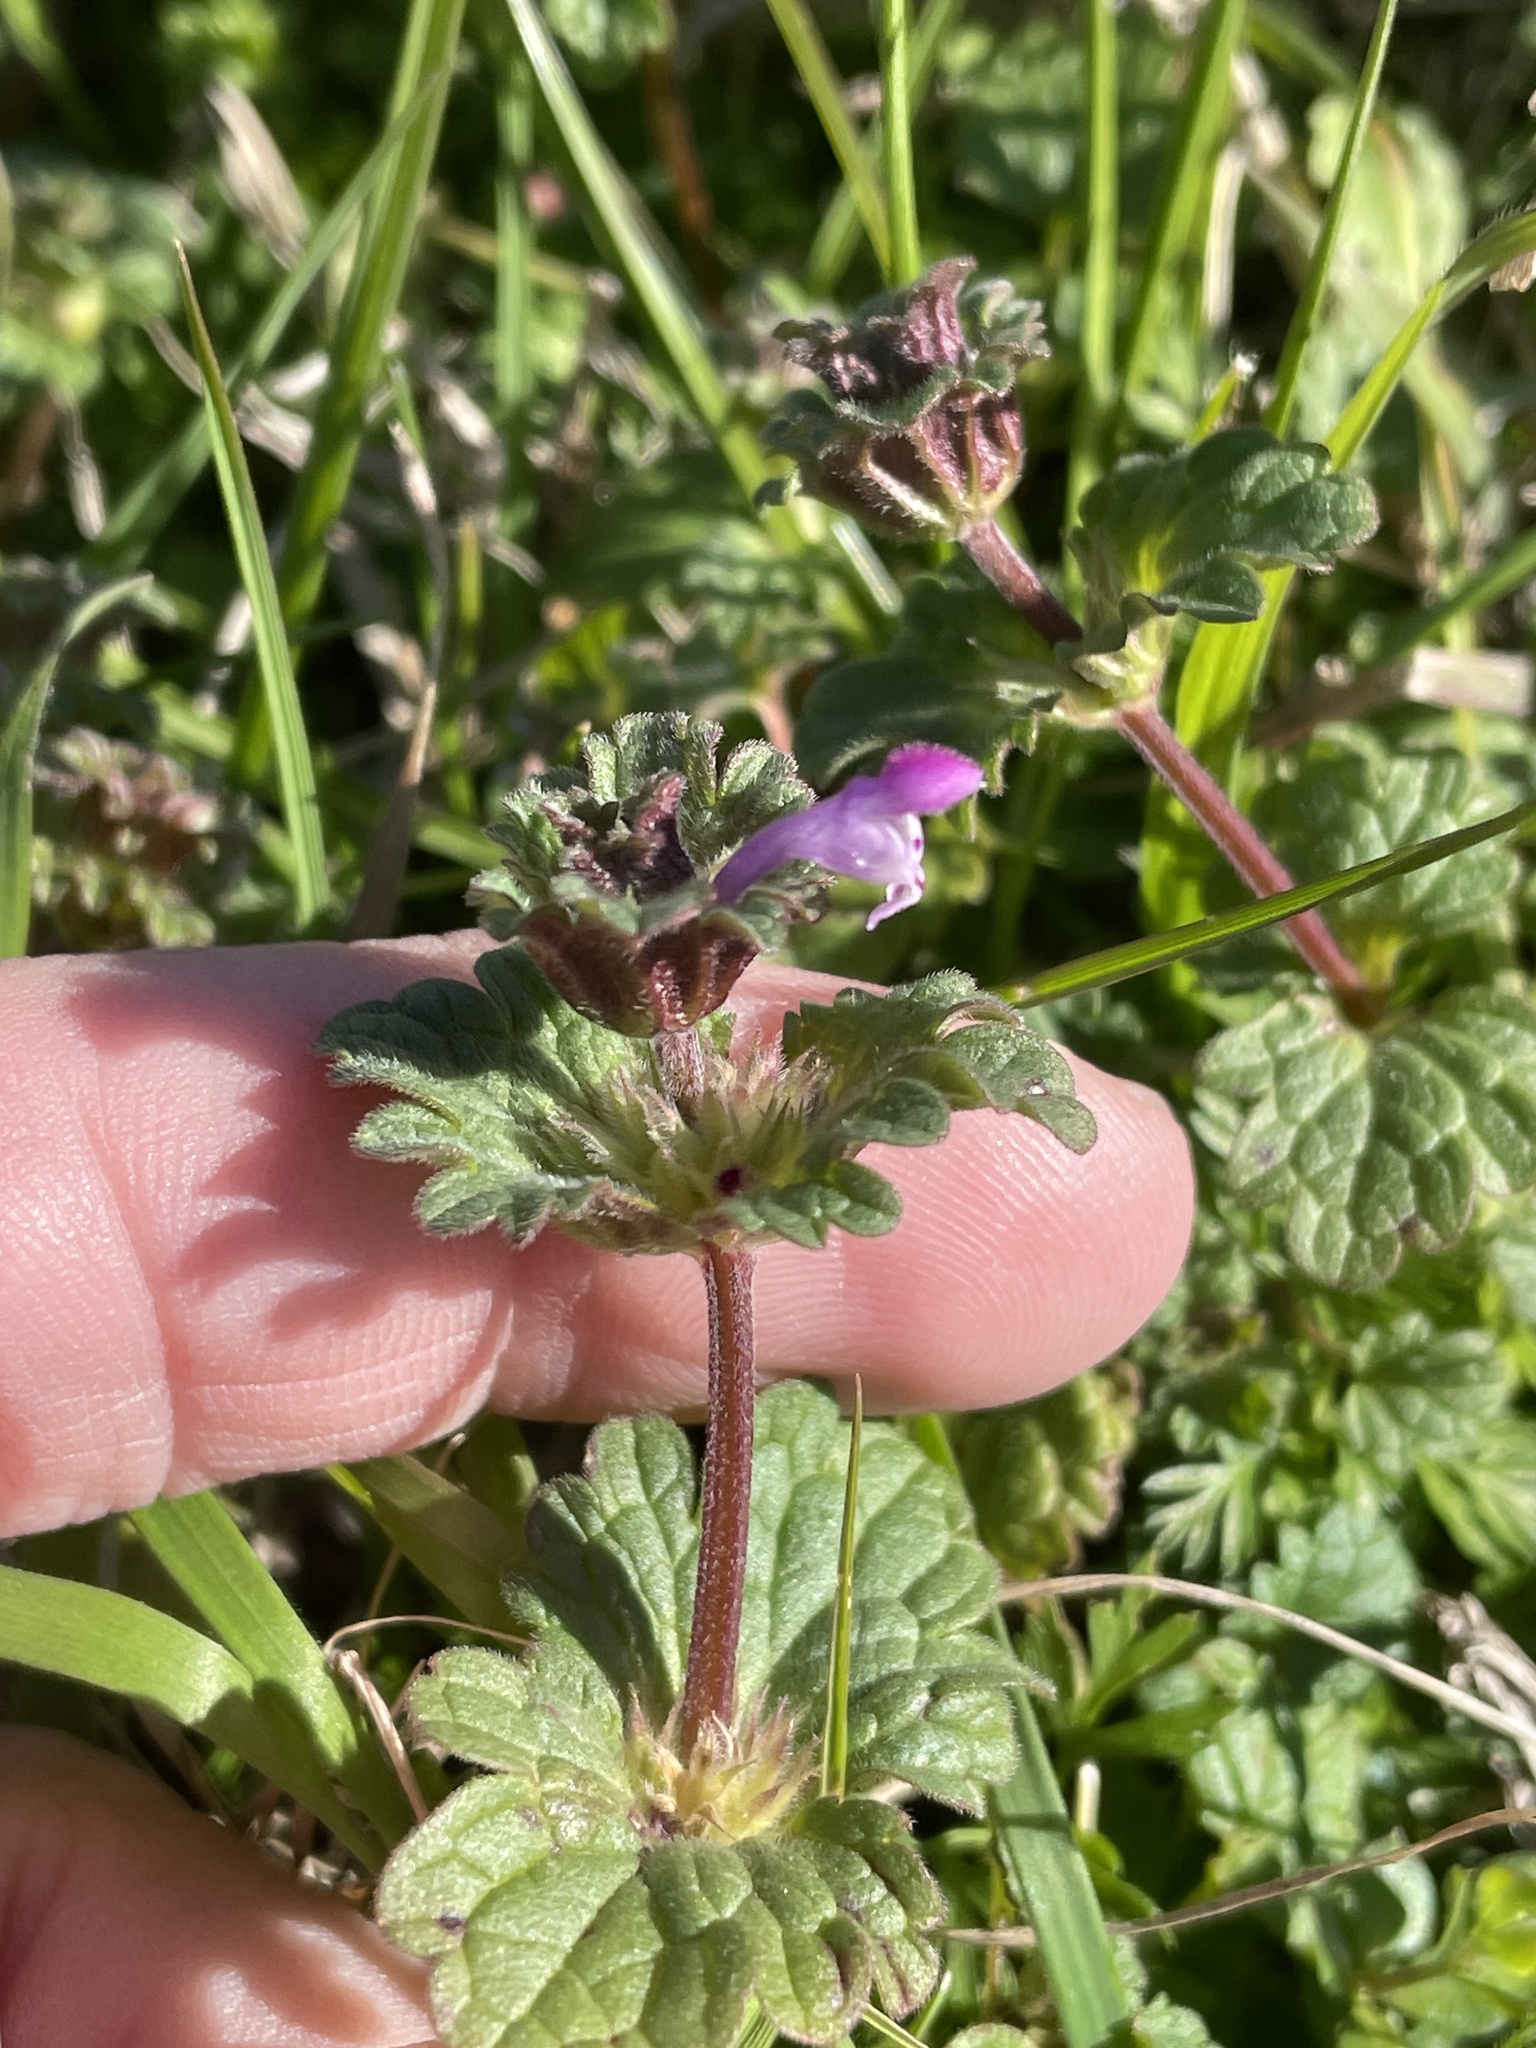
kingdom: Plantae
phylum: Tracheophyta
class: Magnoliopsida
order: Lamiales
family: Lamiaceae
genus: Lamium
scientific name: Lamium amplexicaule
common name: Henbit dead-nettle
